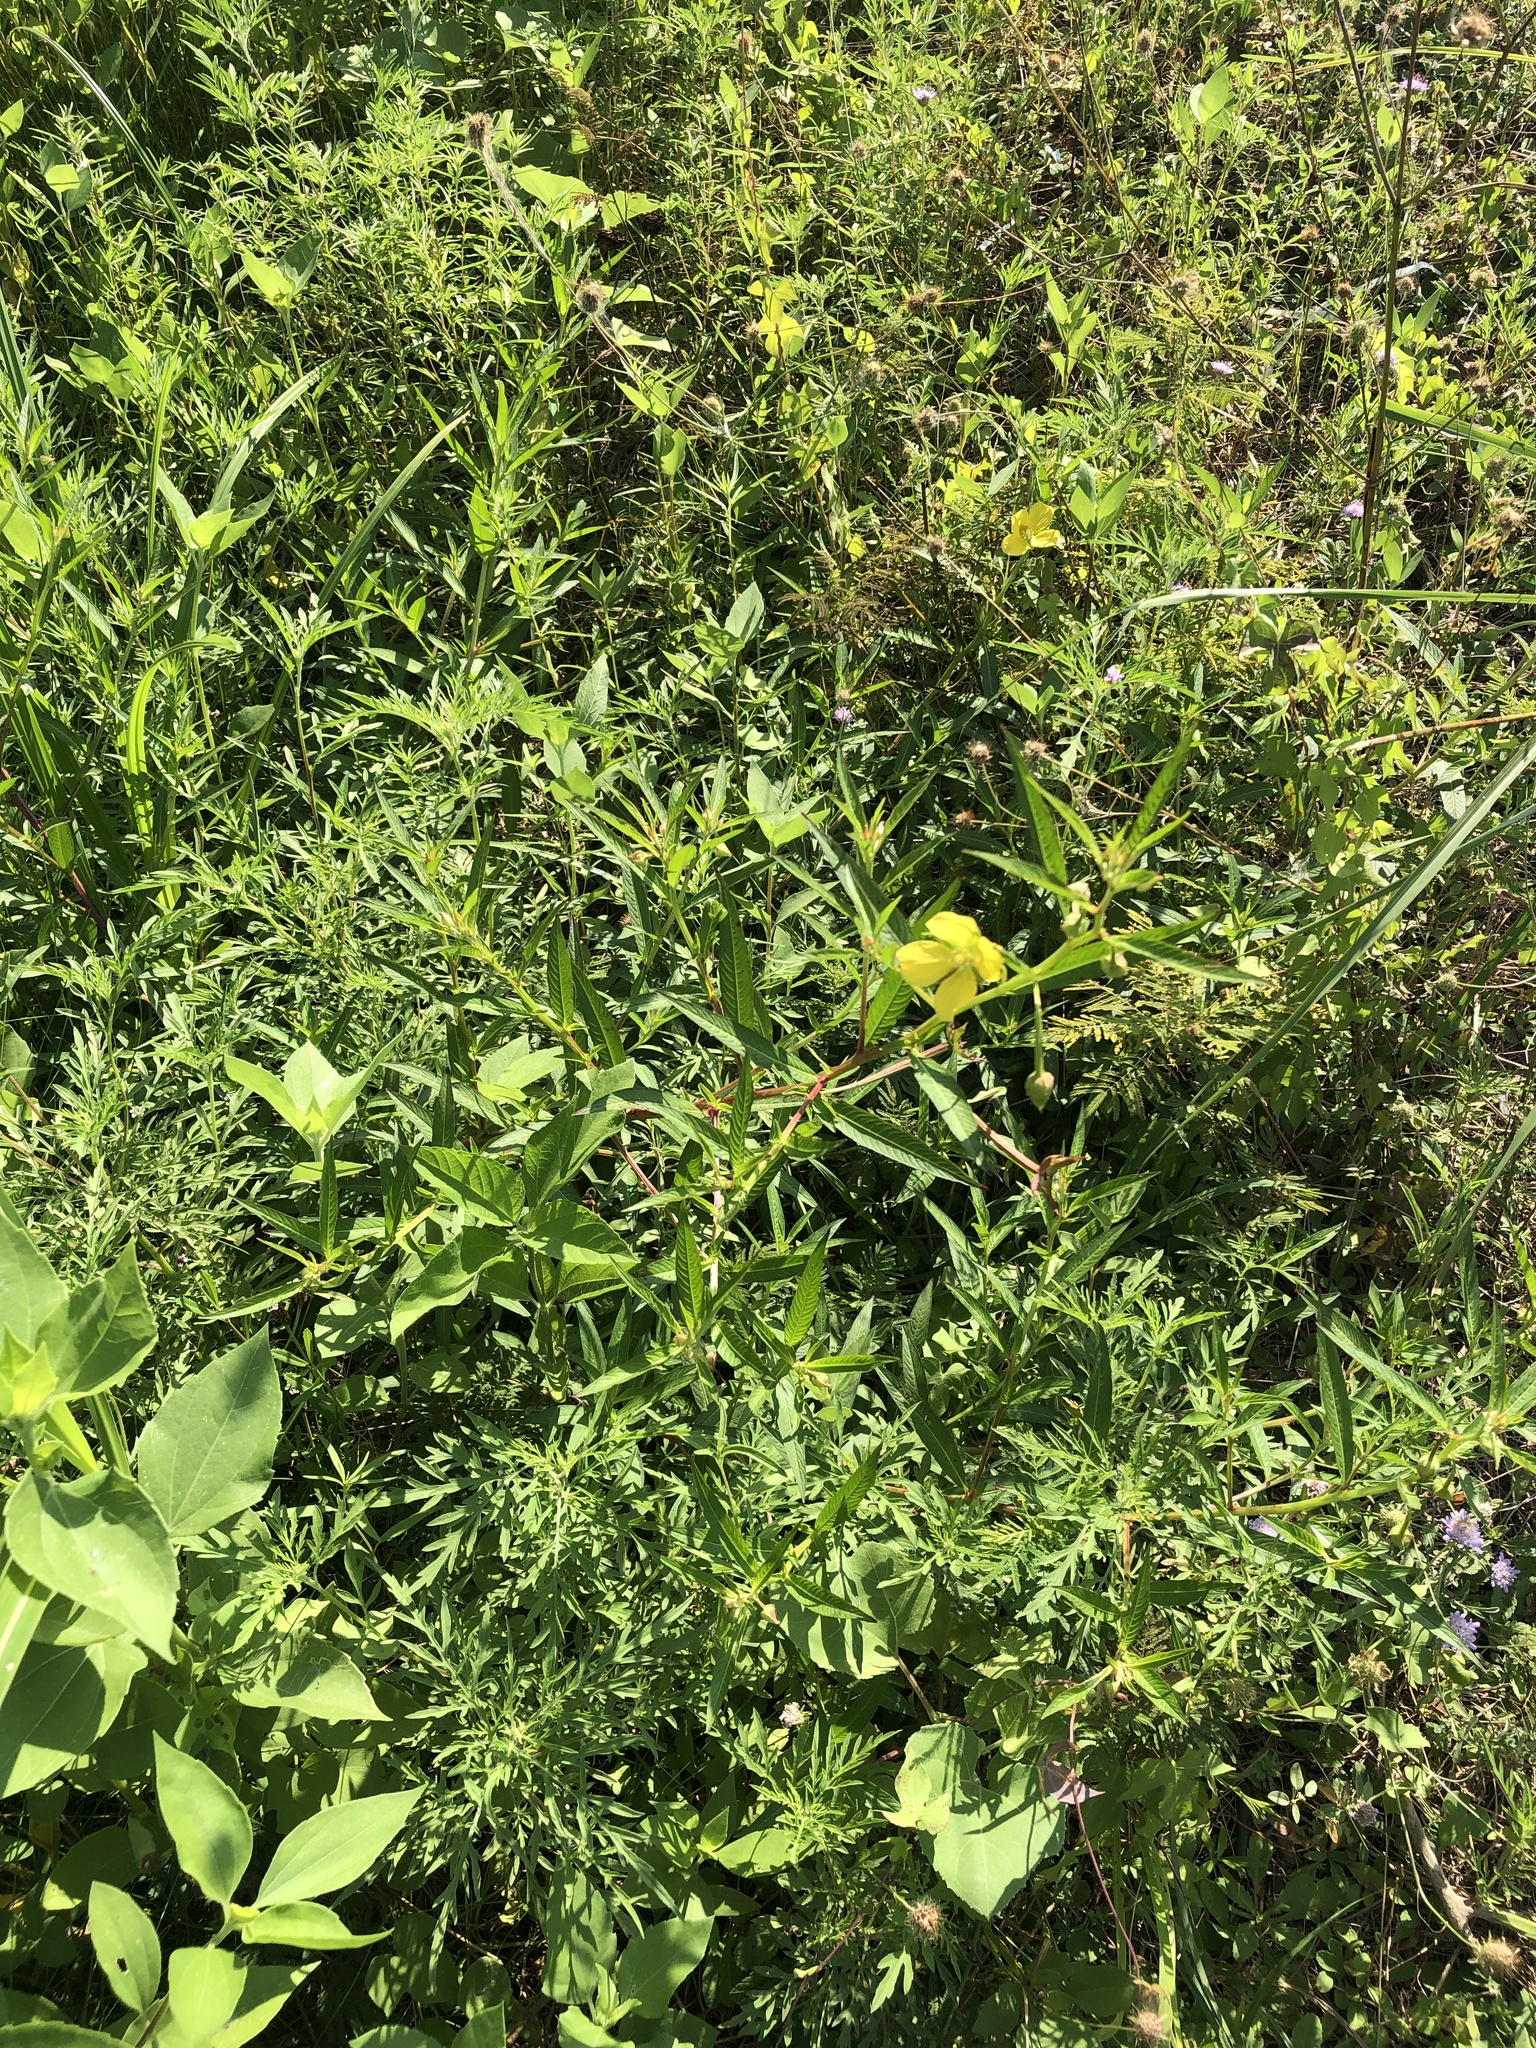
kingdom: Plantae
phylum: Tracheophyta
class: Magnoliopsida
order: Myrtales
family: Onagraceae
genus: Ludwigia
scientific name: Ludwigia octovalvis
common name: Water-primrose
